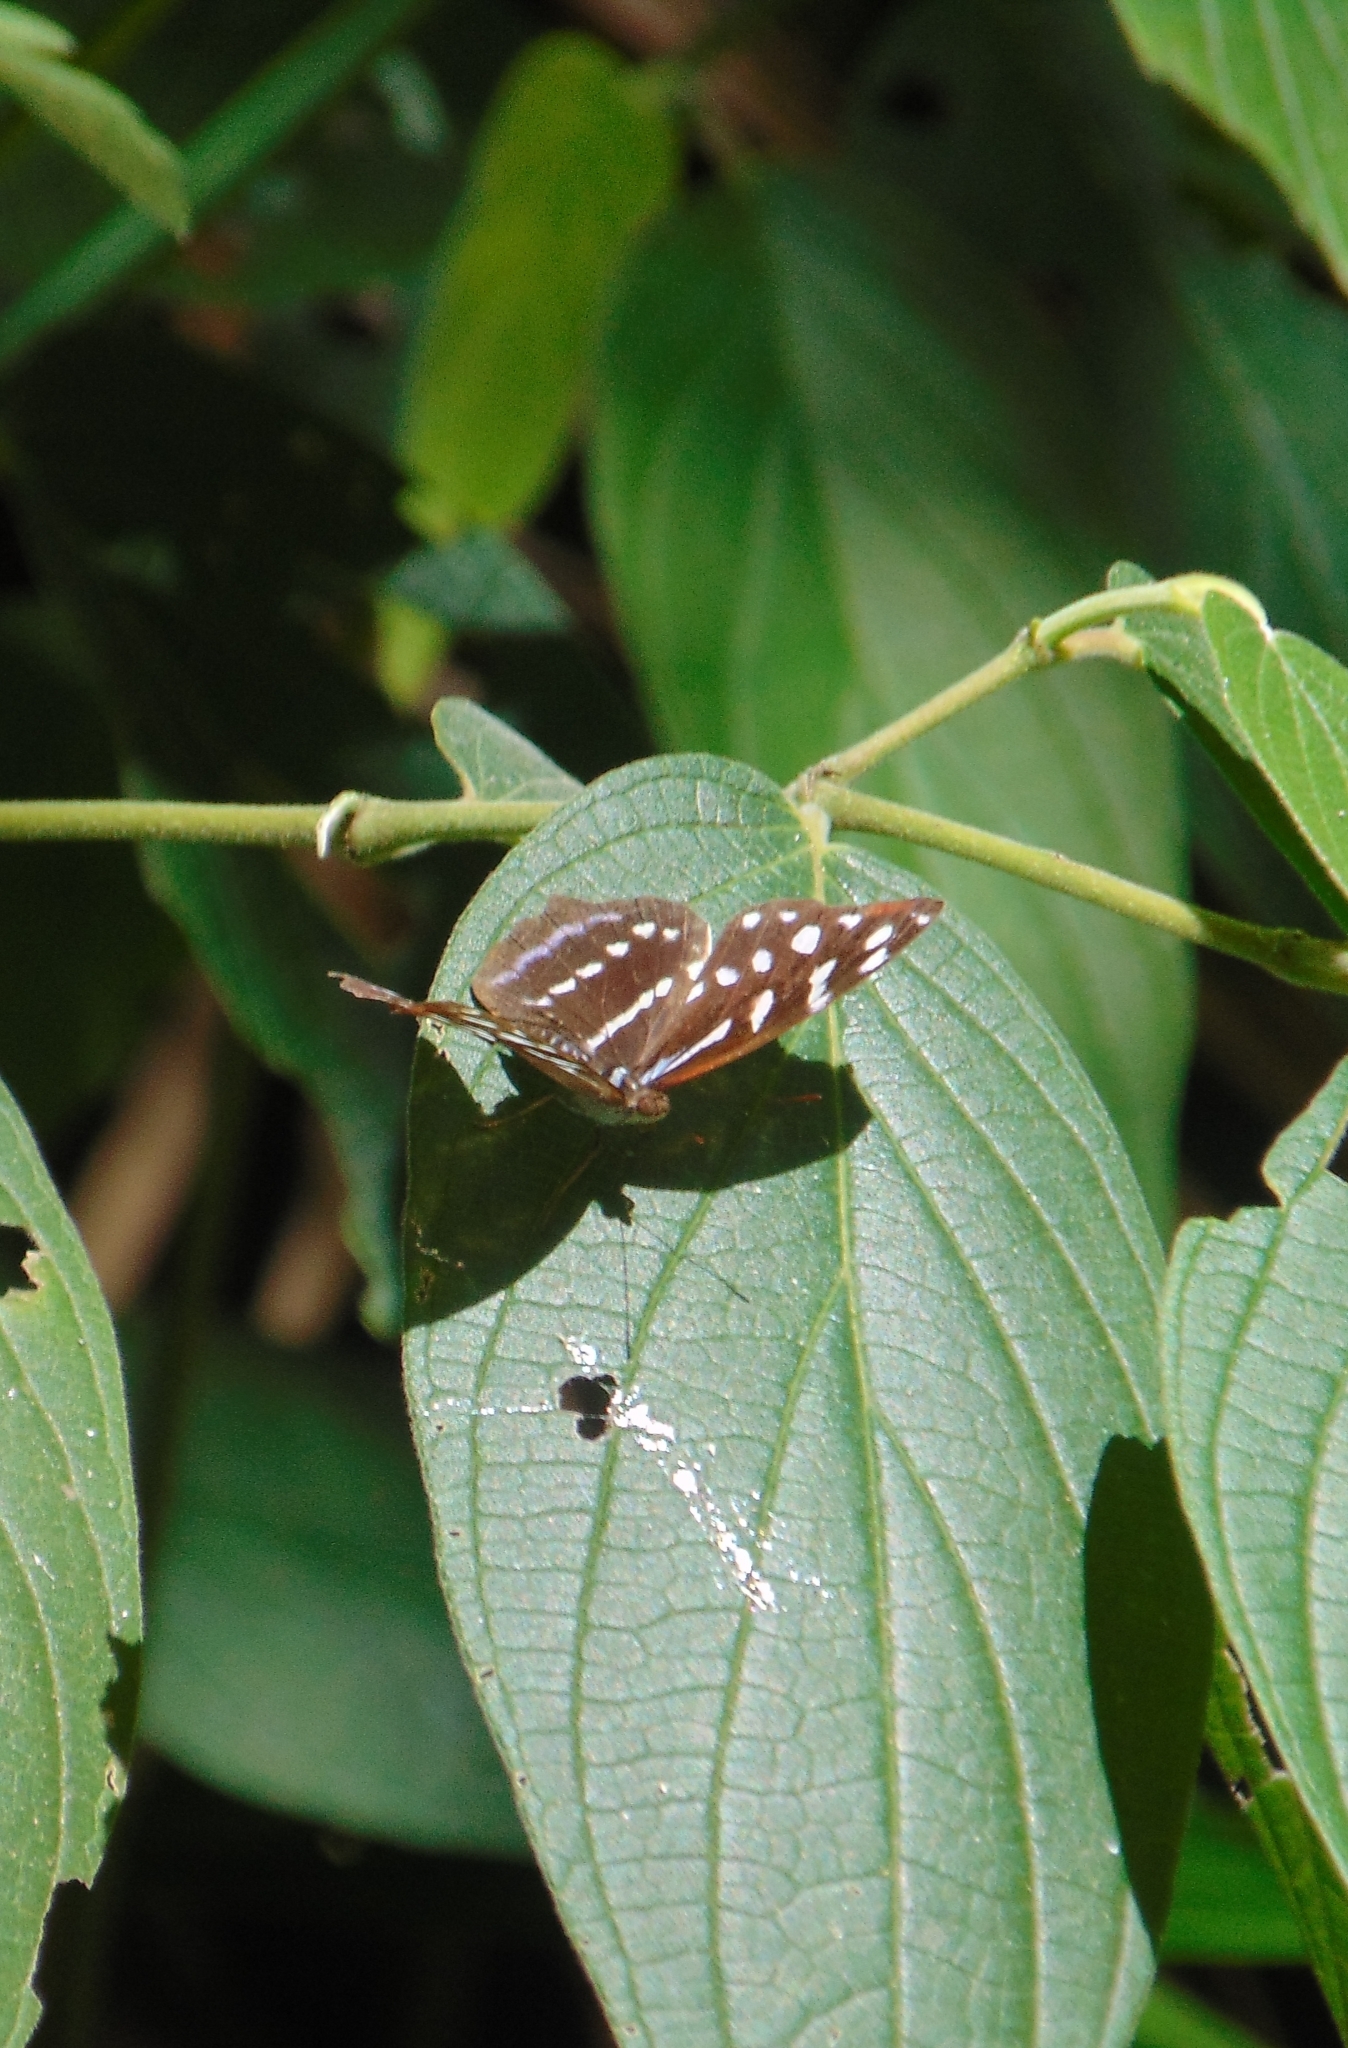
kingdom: Animalia
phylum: Arthropoda
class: Insecta
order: Lepidoptera
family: Nymphalidae
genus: Myscelia
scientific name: Myscelia orsis
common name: Orsis bluewing
